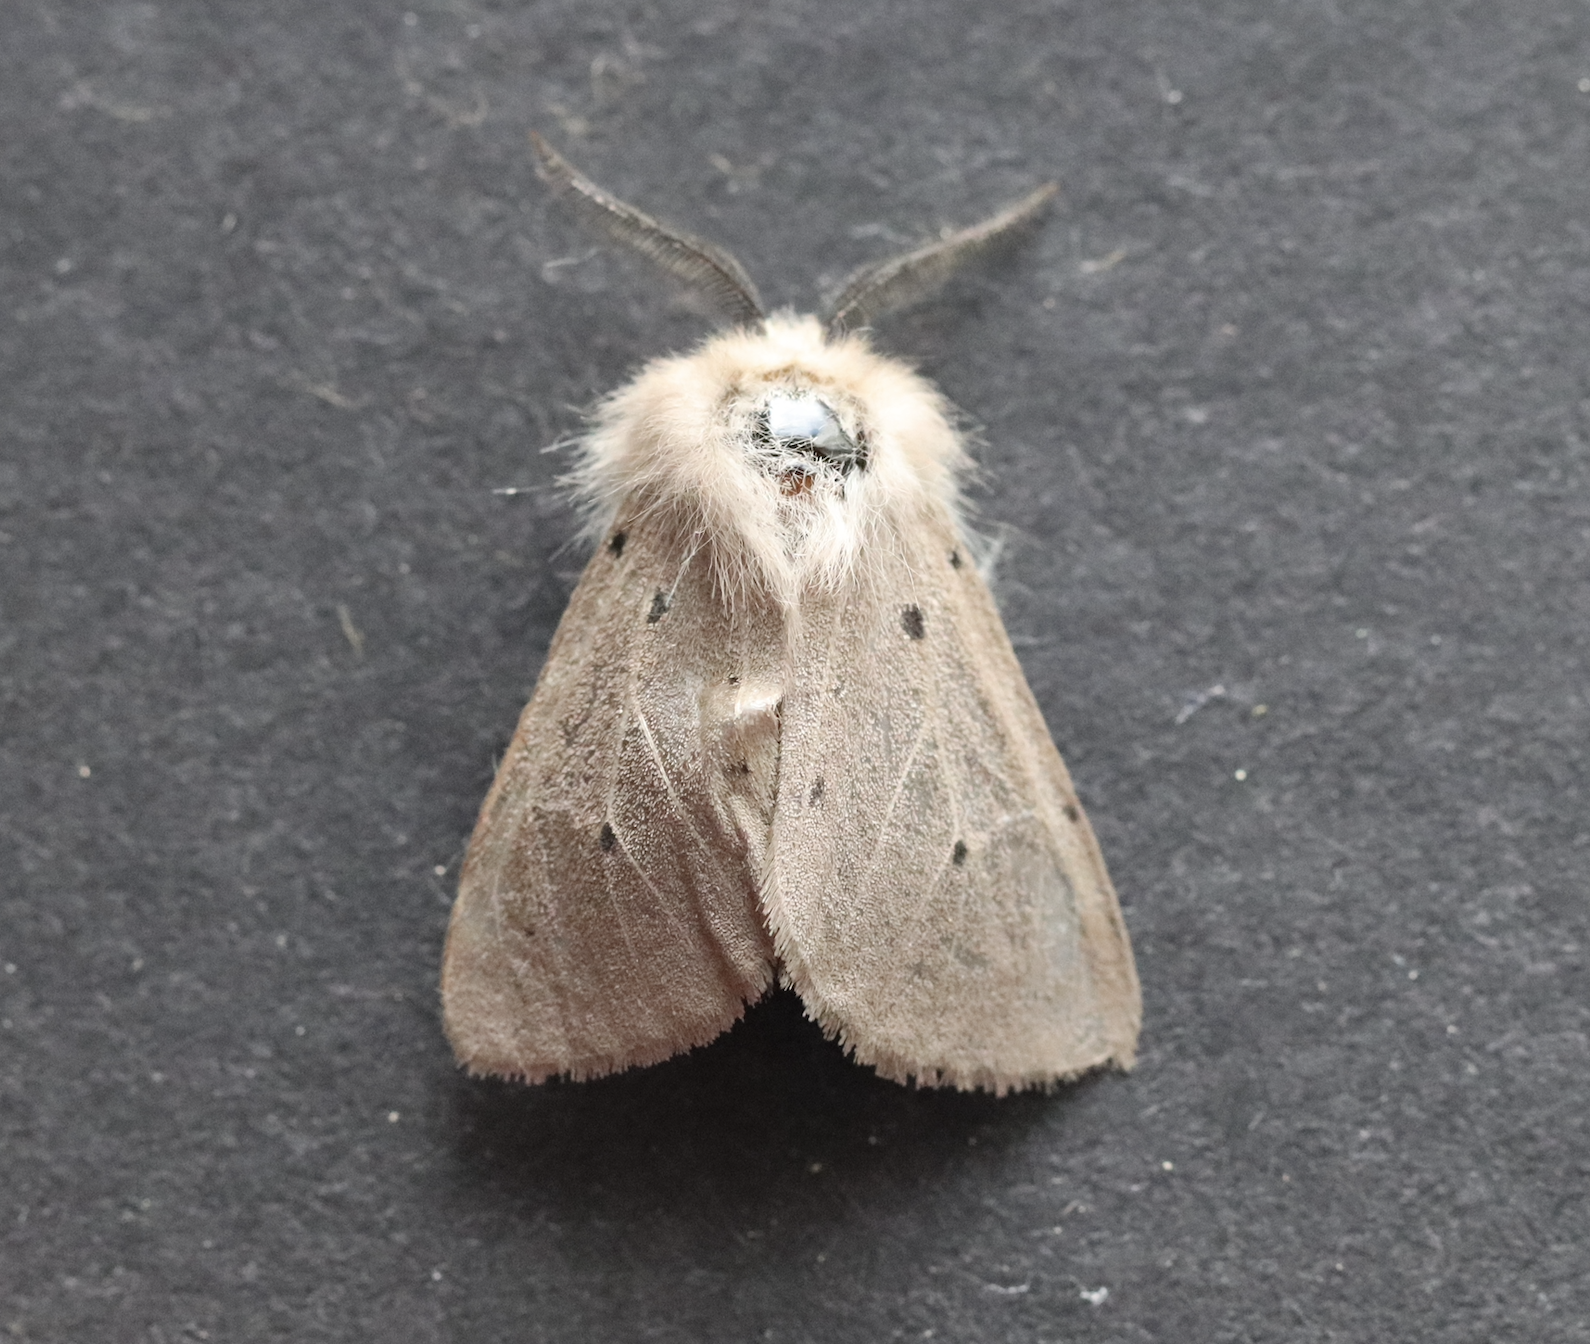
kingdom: Animalia
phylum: Arthropoda
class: Insecta
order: Lepidoptera
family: Erebidae
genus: Diaphora
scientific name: Diaphora mendica
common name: Muslin moth
